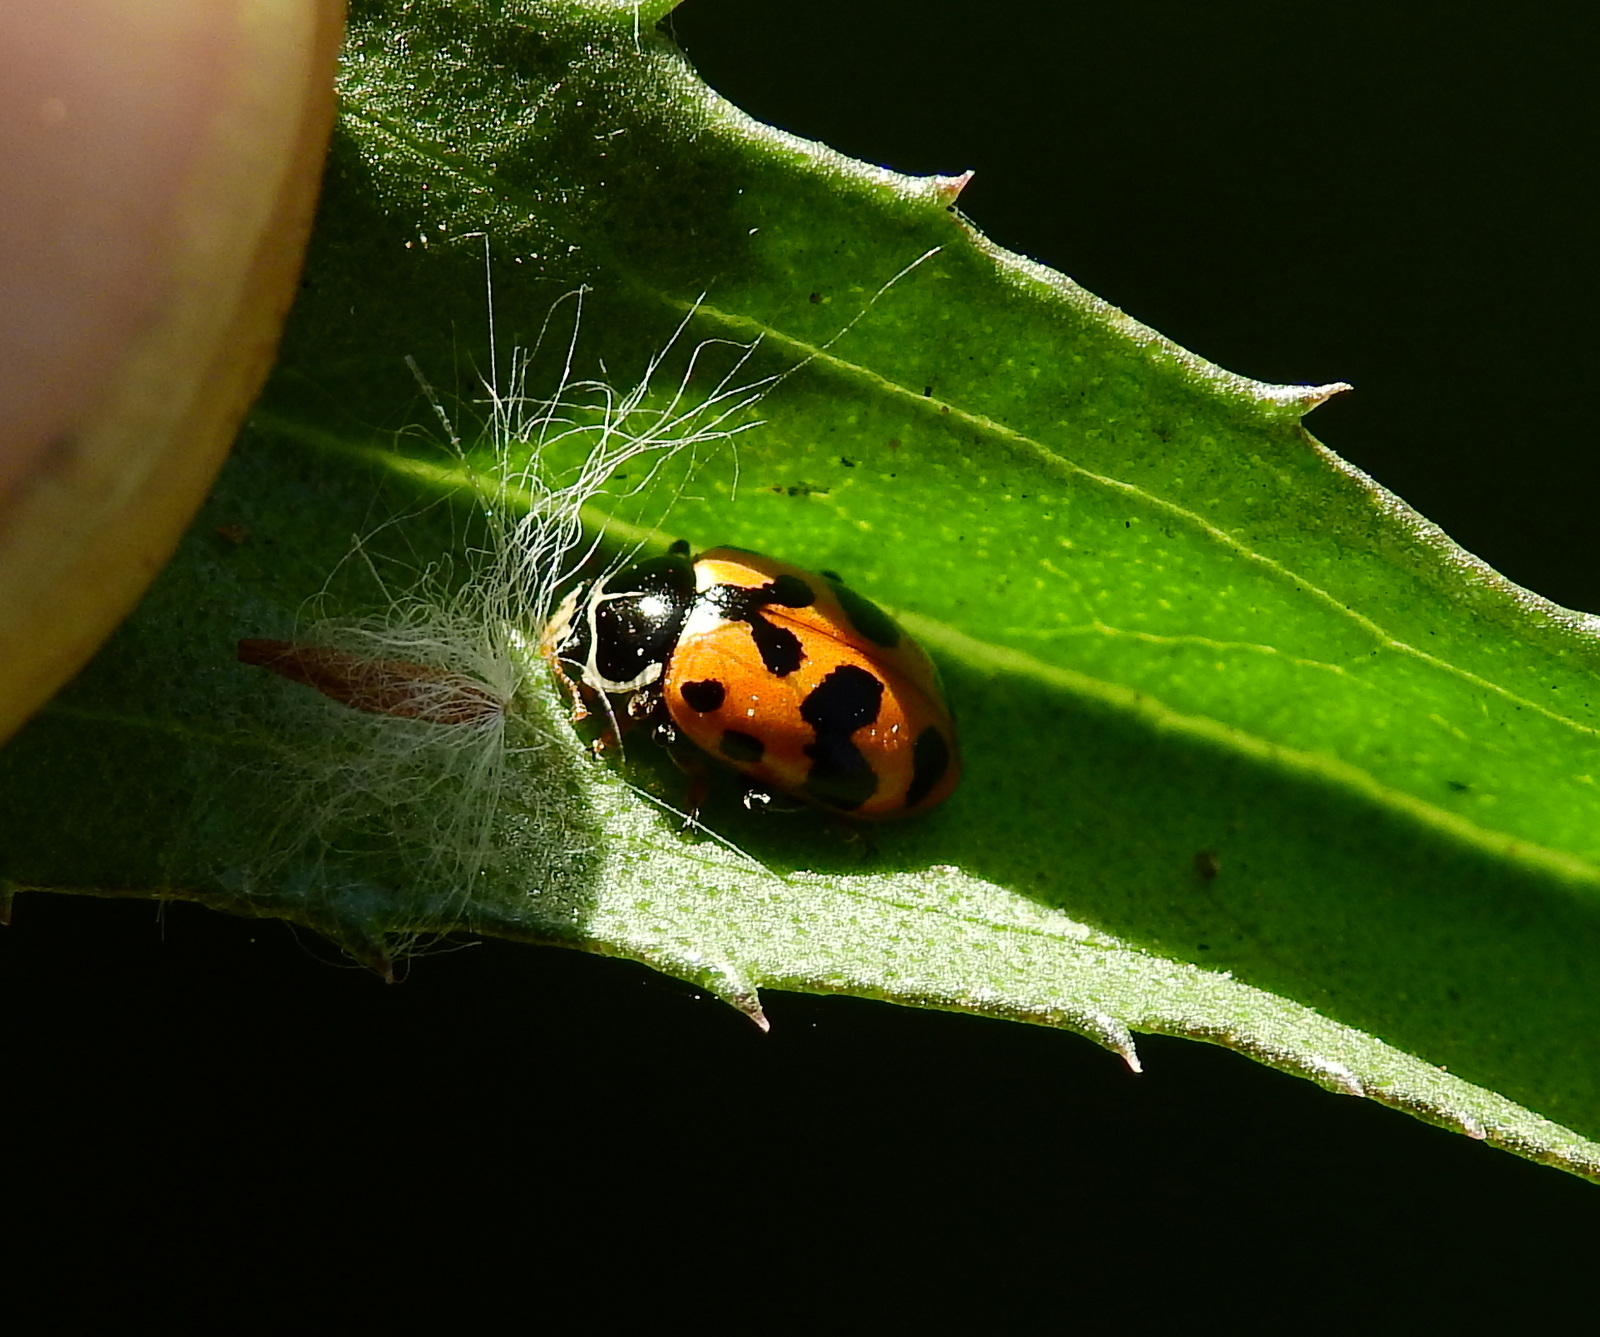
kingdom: Animalia
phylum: Arthropoda
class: Insecta
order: Coleoptera
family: Coccinellidae
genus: Hippodamia
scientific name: Hippodamia variegata
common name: Ladybird beetle
